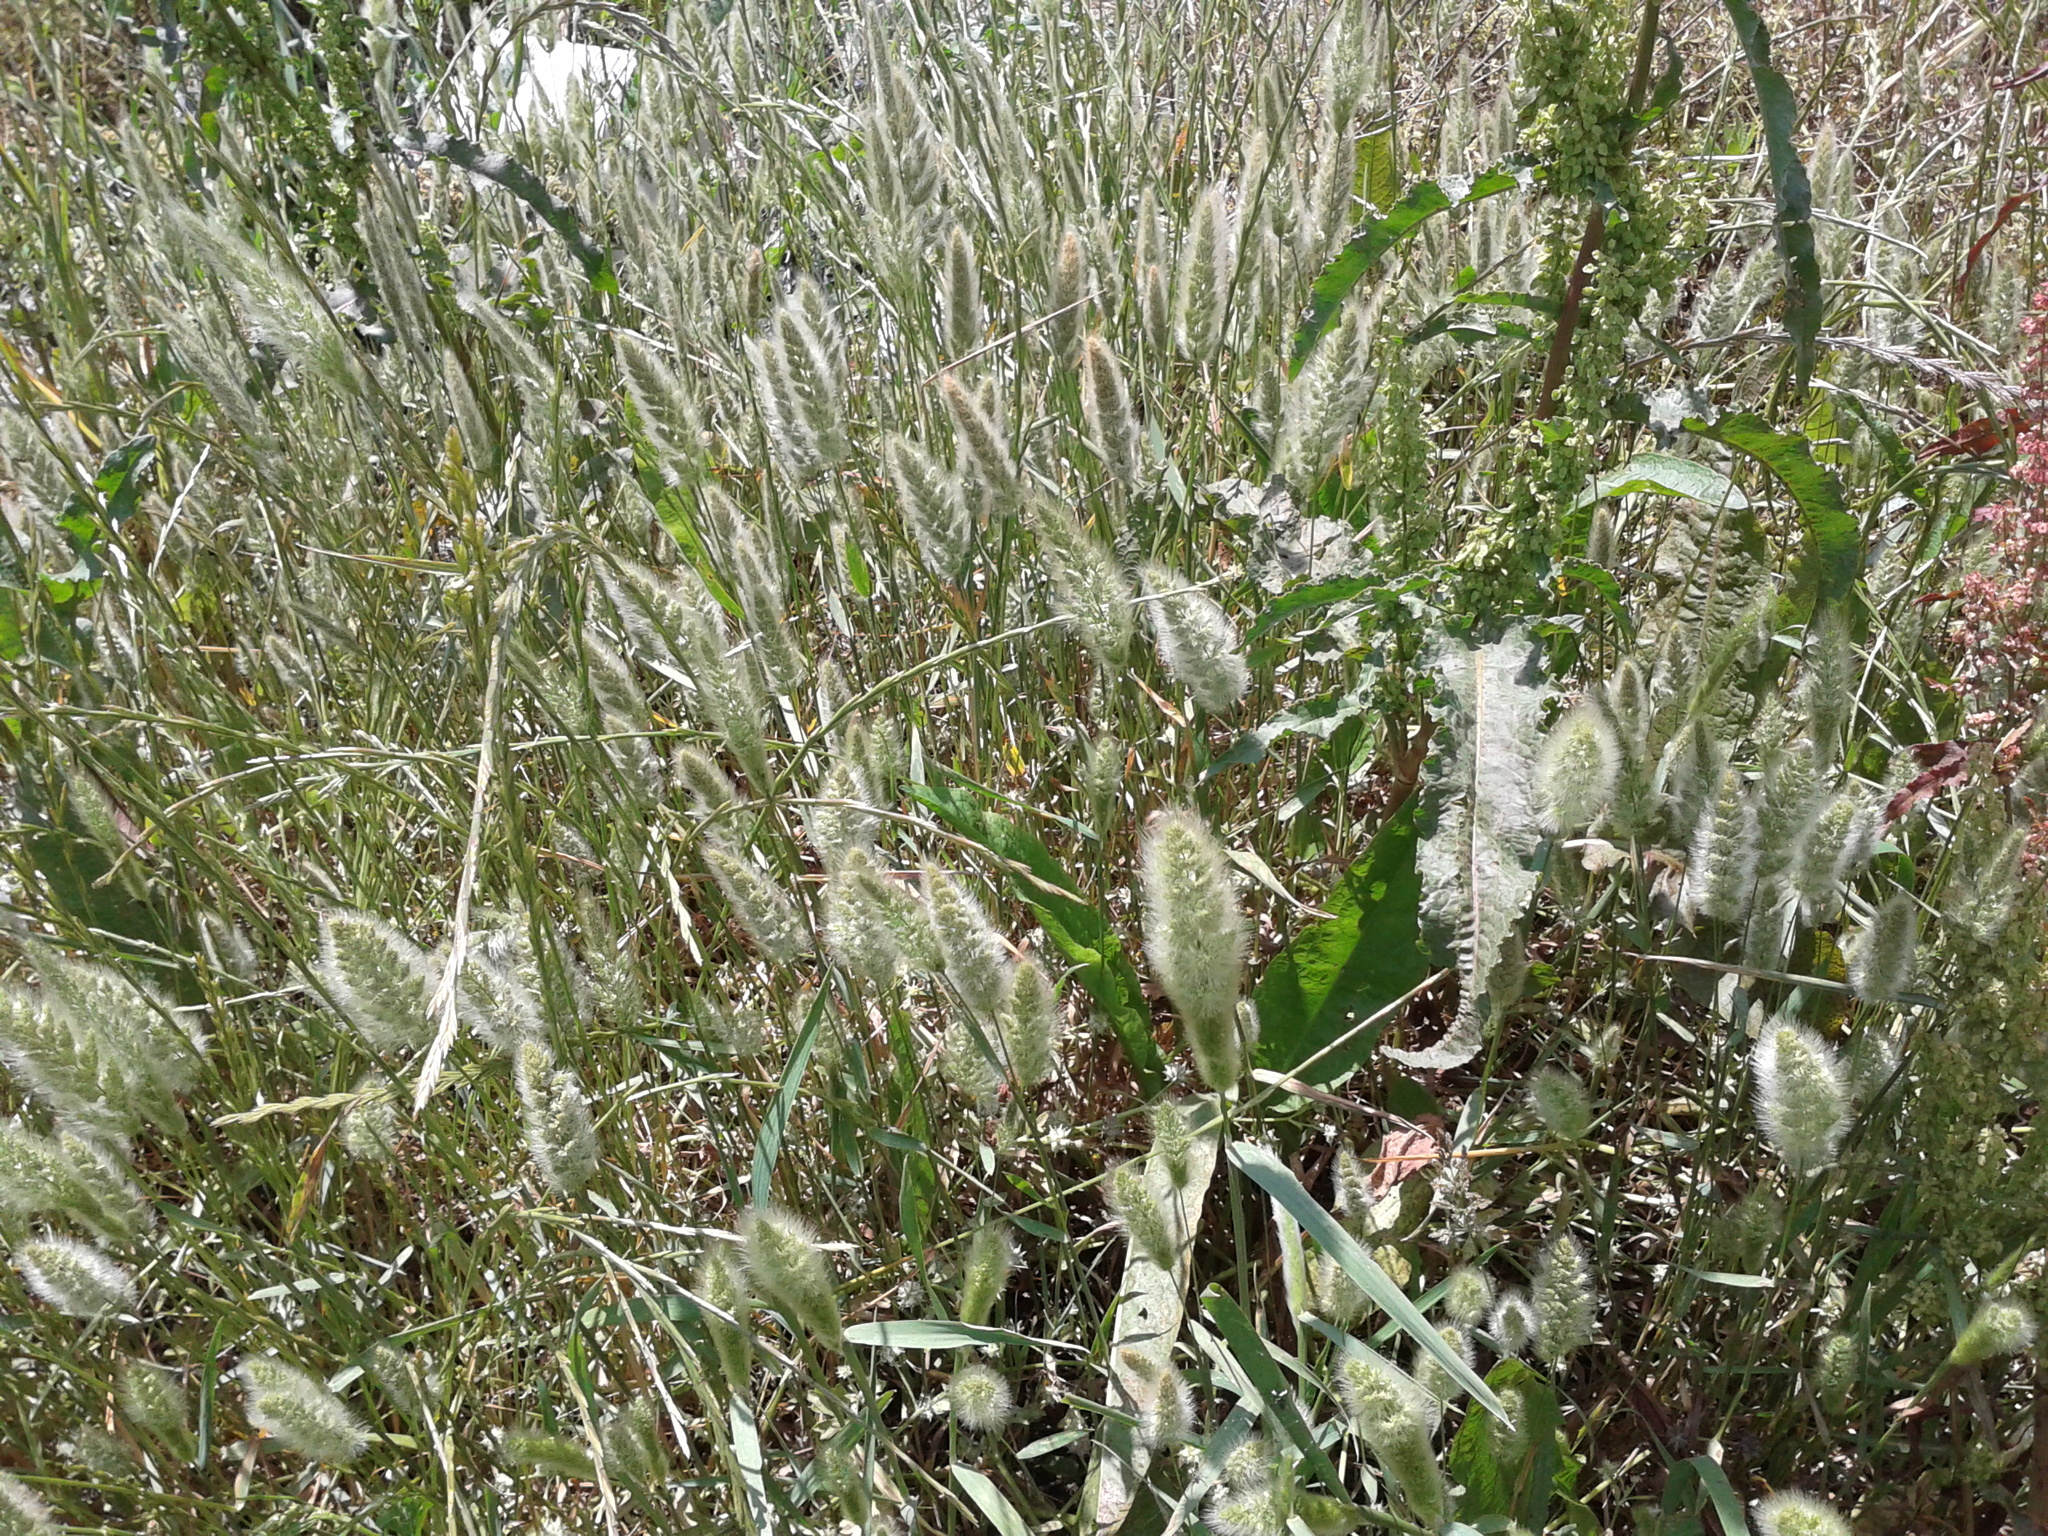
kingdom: Plantae
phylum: Tracheophyta
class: Liliopsida
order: Poales
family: Poaceae
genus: Polypogon
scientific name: Polypogon monspeliensis
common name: Annual rabbitsfoot grass
